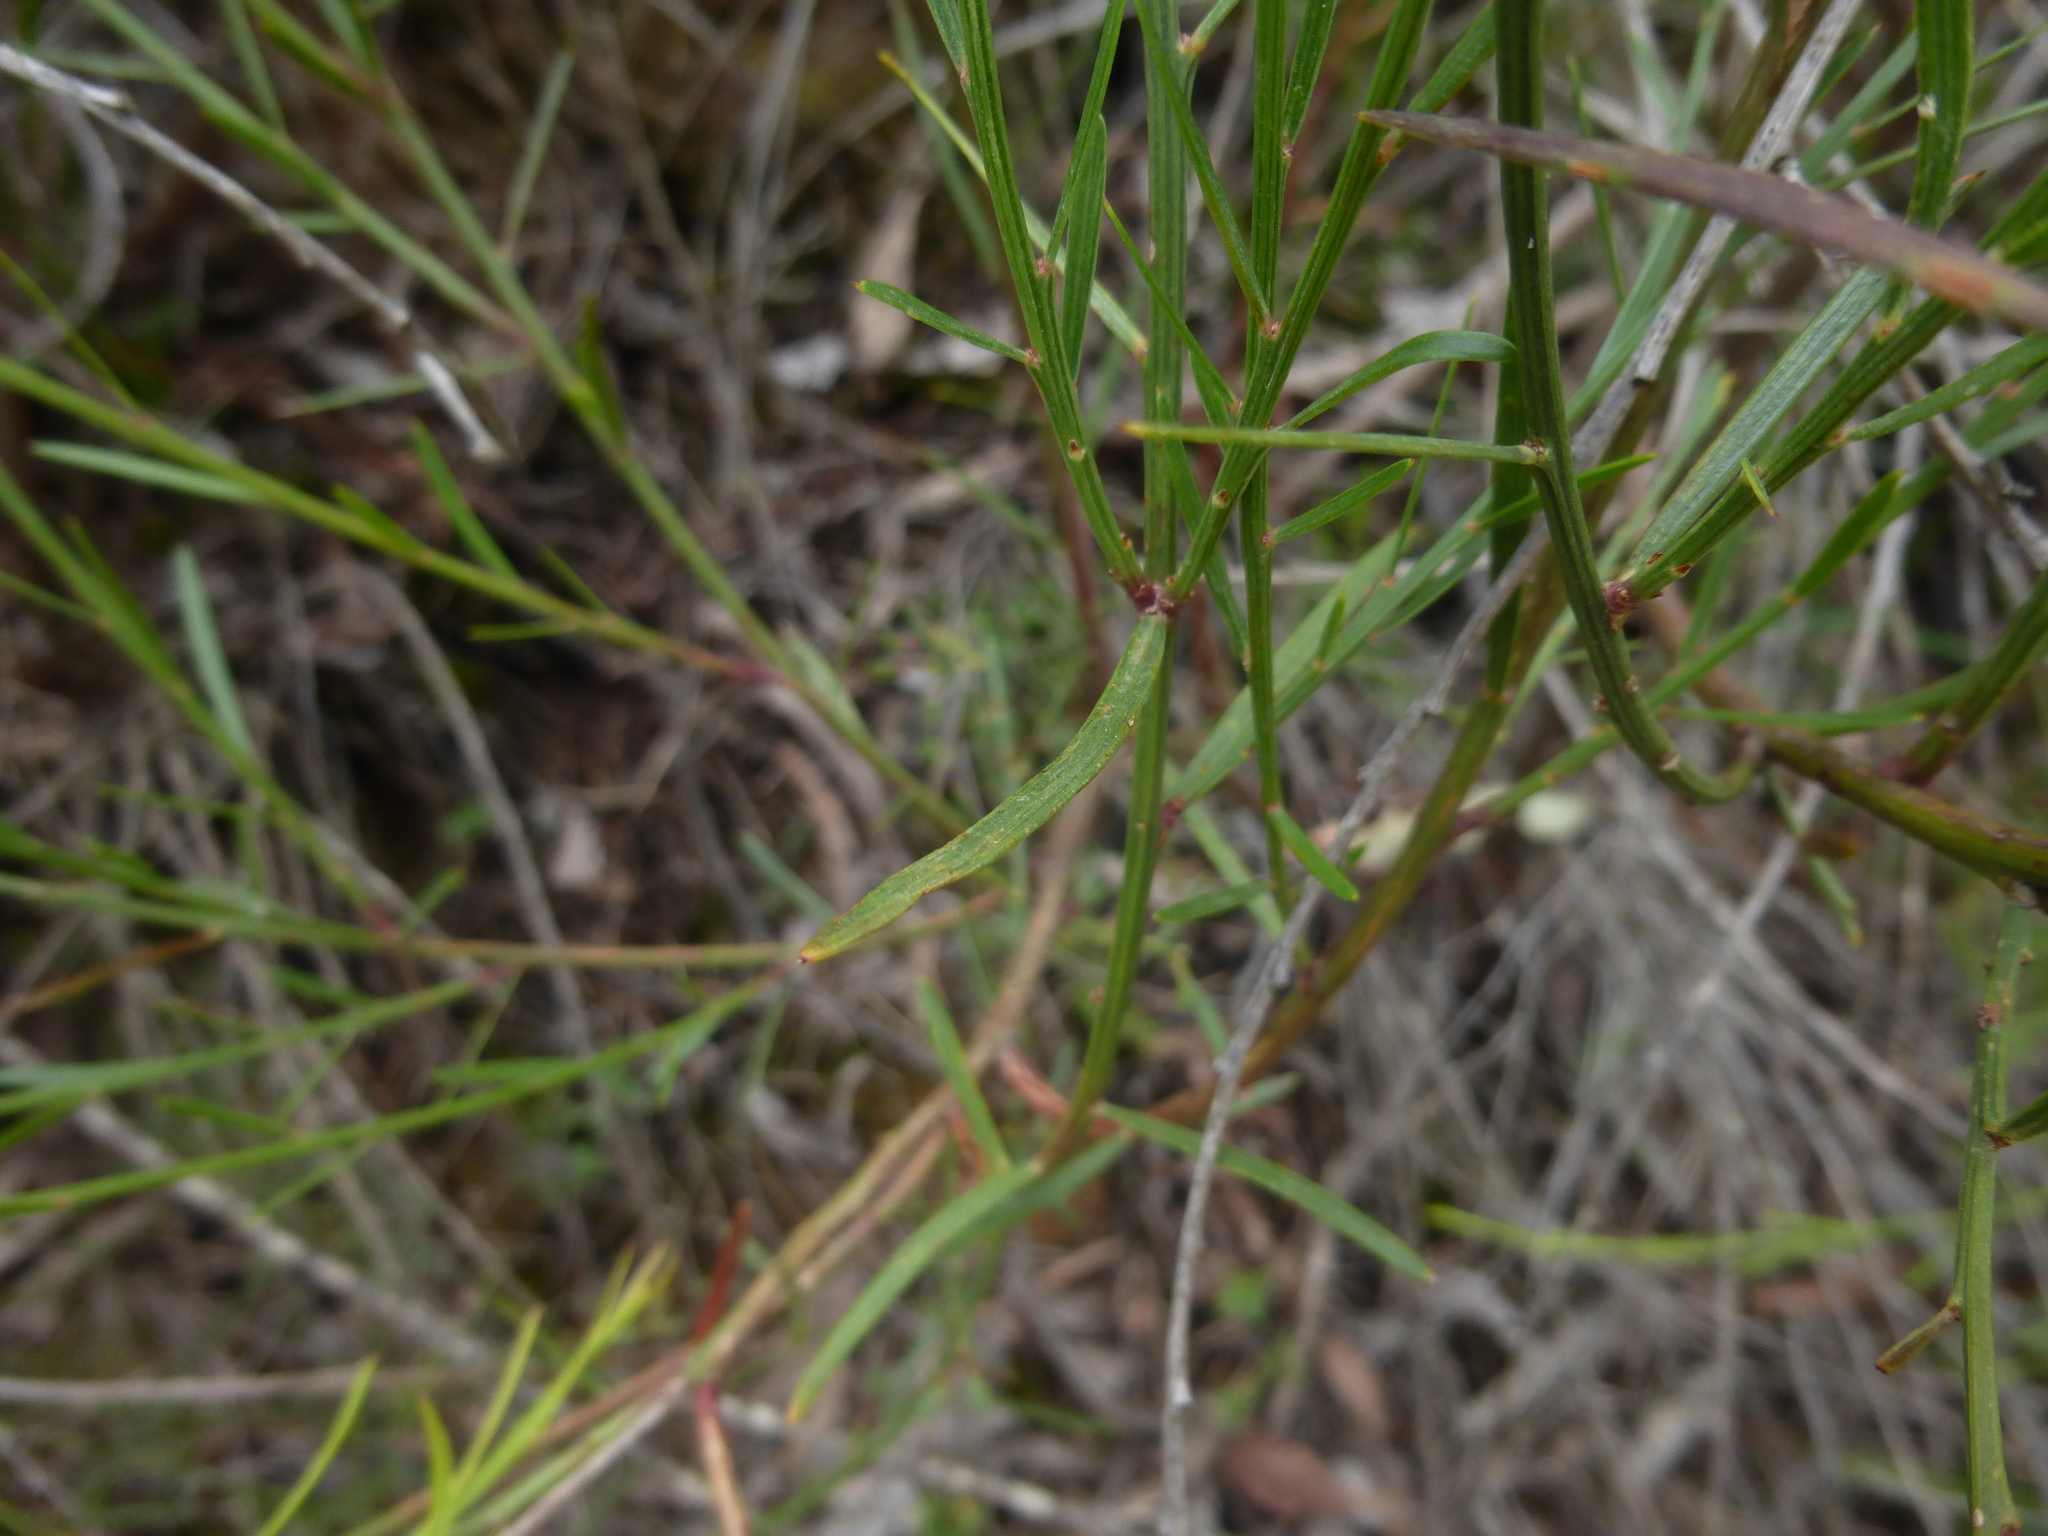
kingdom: Plantae
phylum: Tracheophyta
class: Magnoliopsida
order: Fabales
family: Fabaceae
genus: Daviesia
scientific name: Daviesia leptophylla
